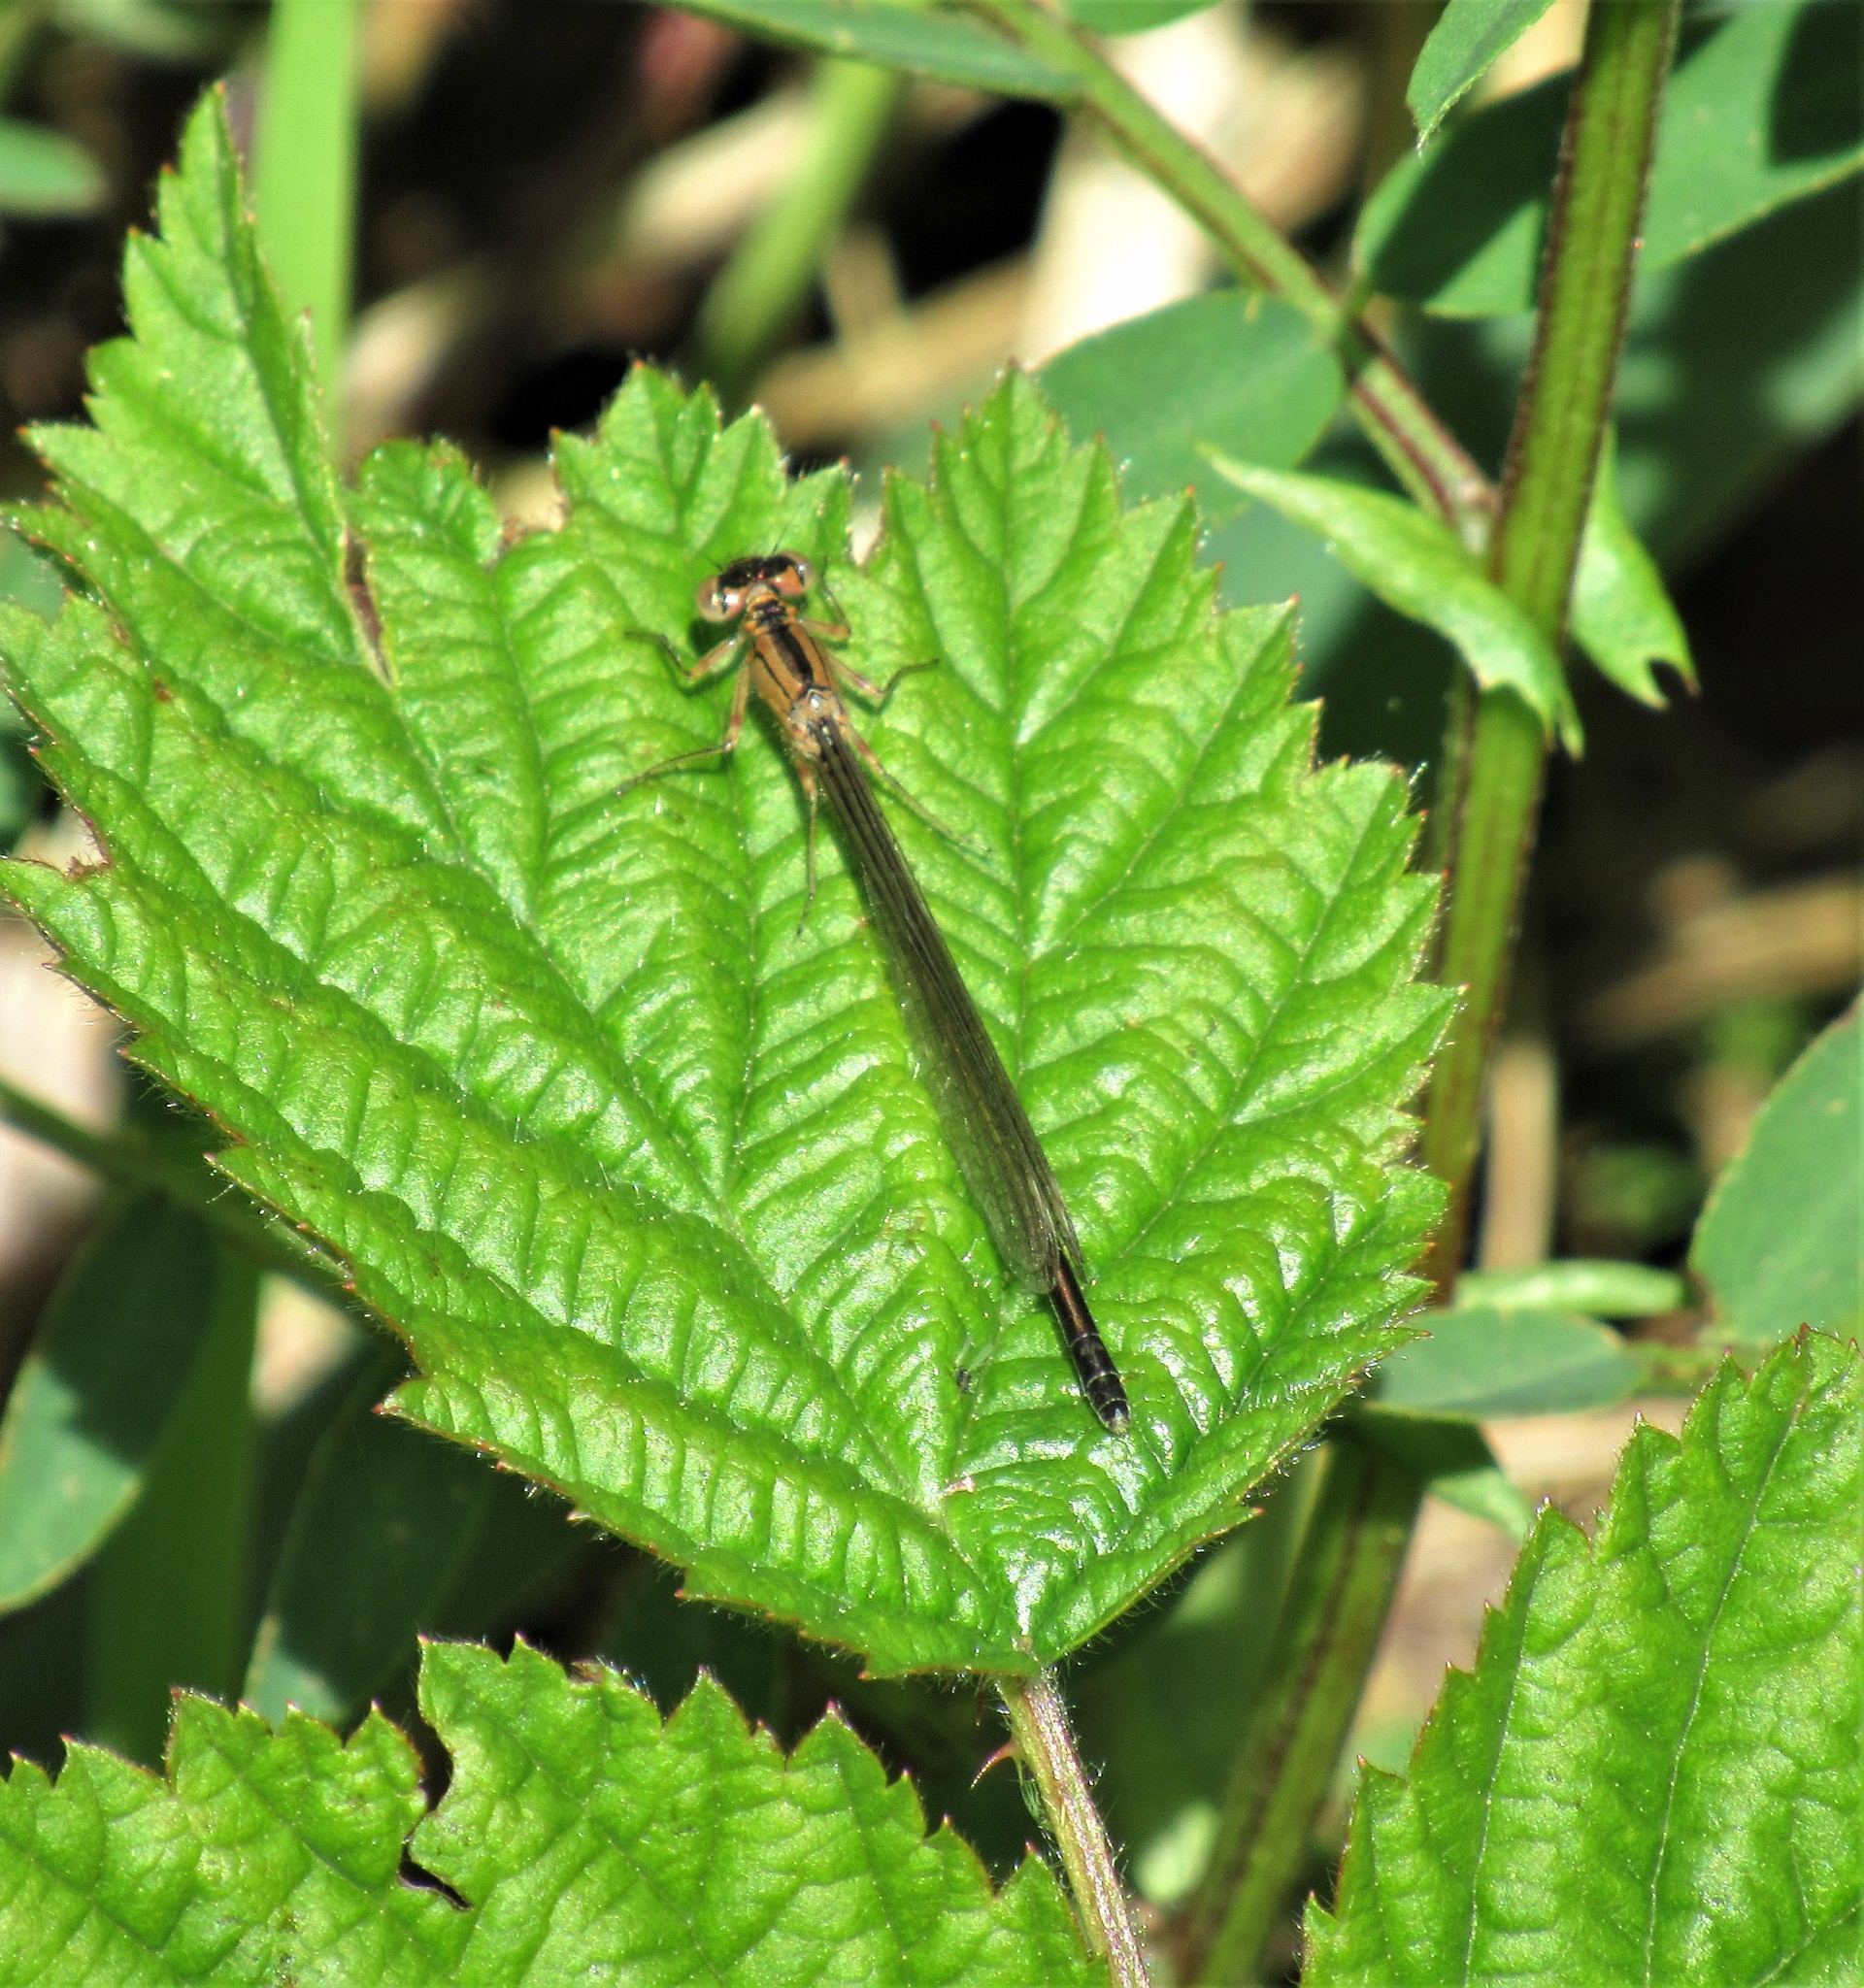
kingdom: Animalia
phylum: Arthropoda
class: Insecta
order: Odonata
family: Coenagrionidae
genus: Ischnura
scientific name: Ischnura cervula
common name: Pacific forktail
